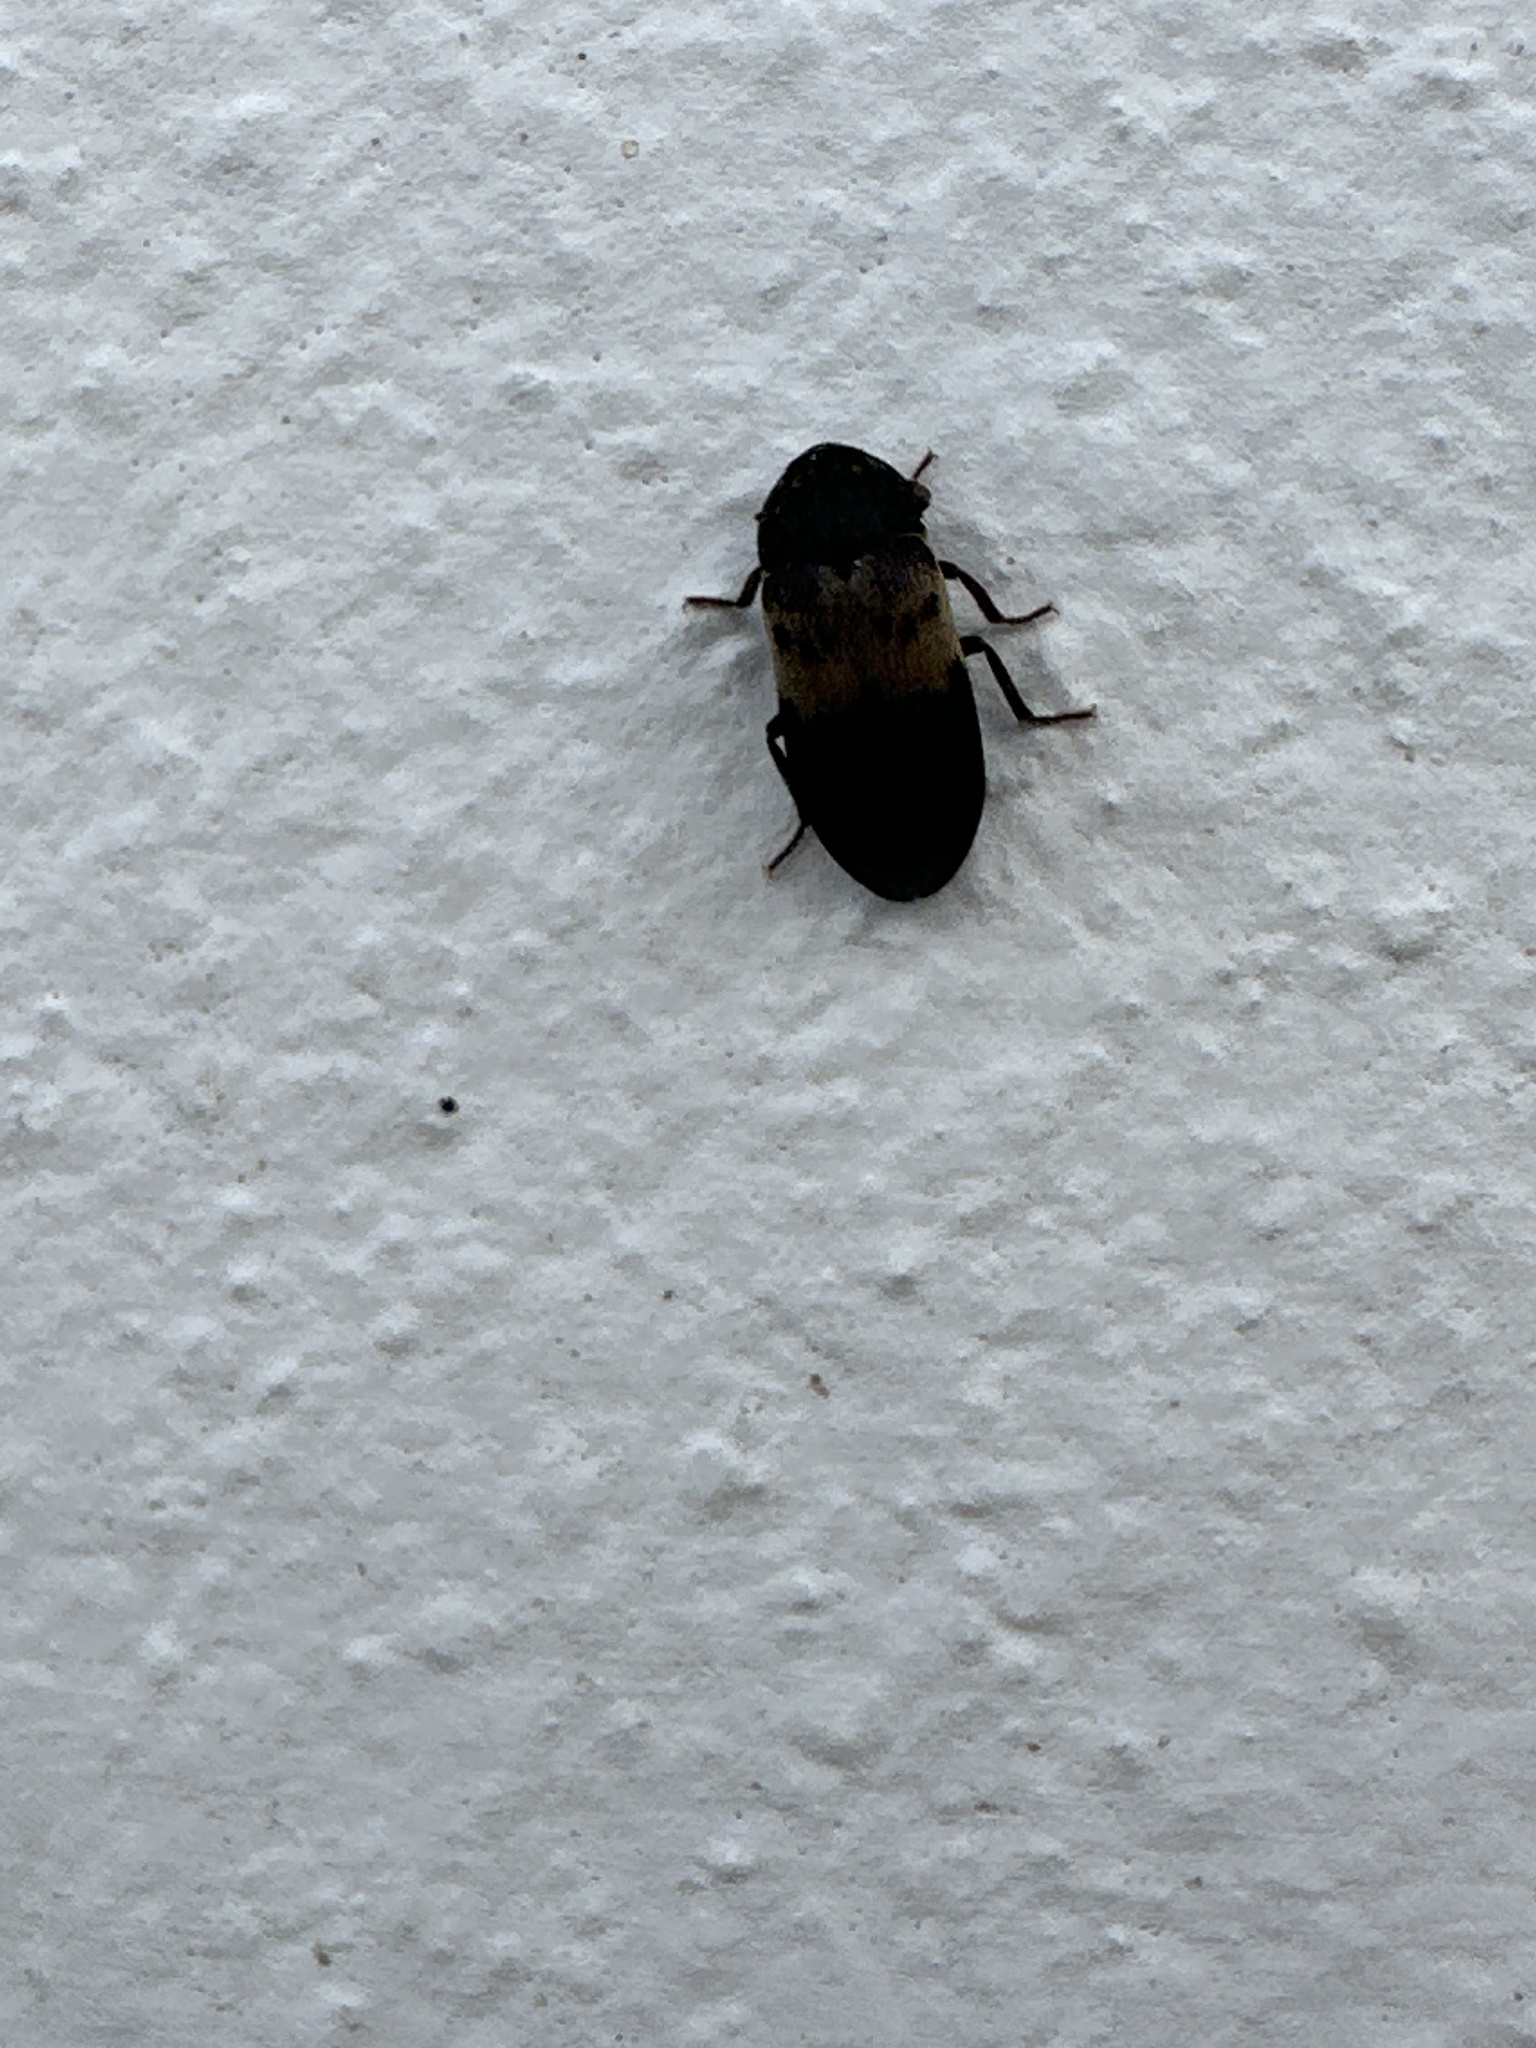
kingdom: Animalia
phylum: Arthropoda
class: Insecta
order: Coleoptera
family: Dermestidae
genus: Dermestes
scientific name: Dermestes lardarius
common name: Larder beetle
